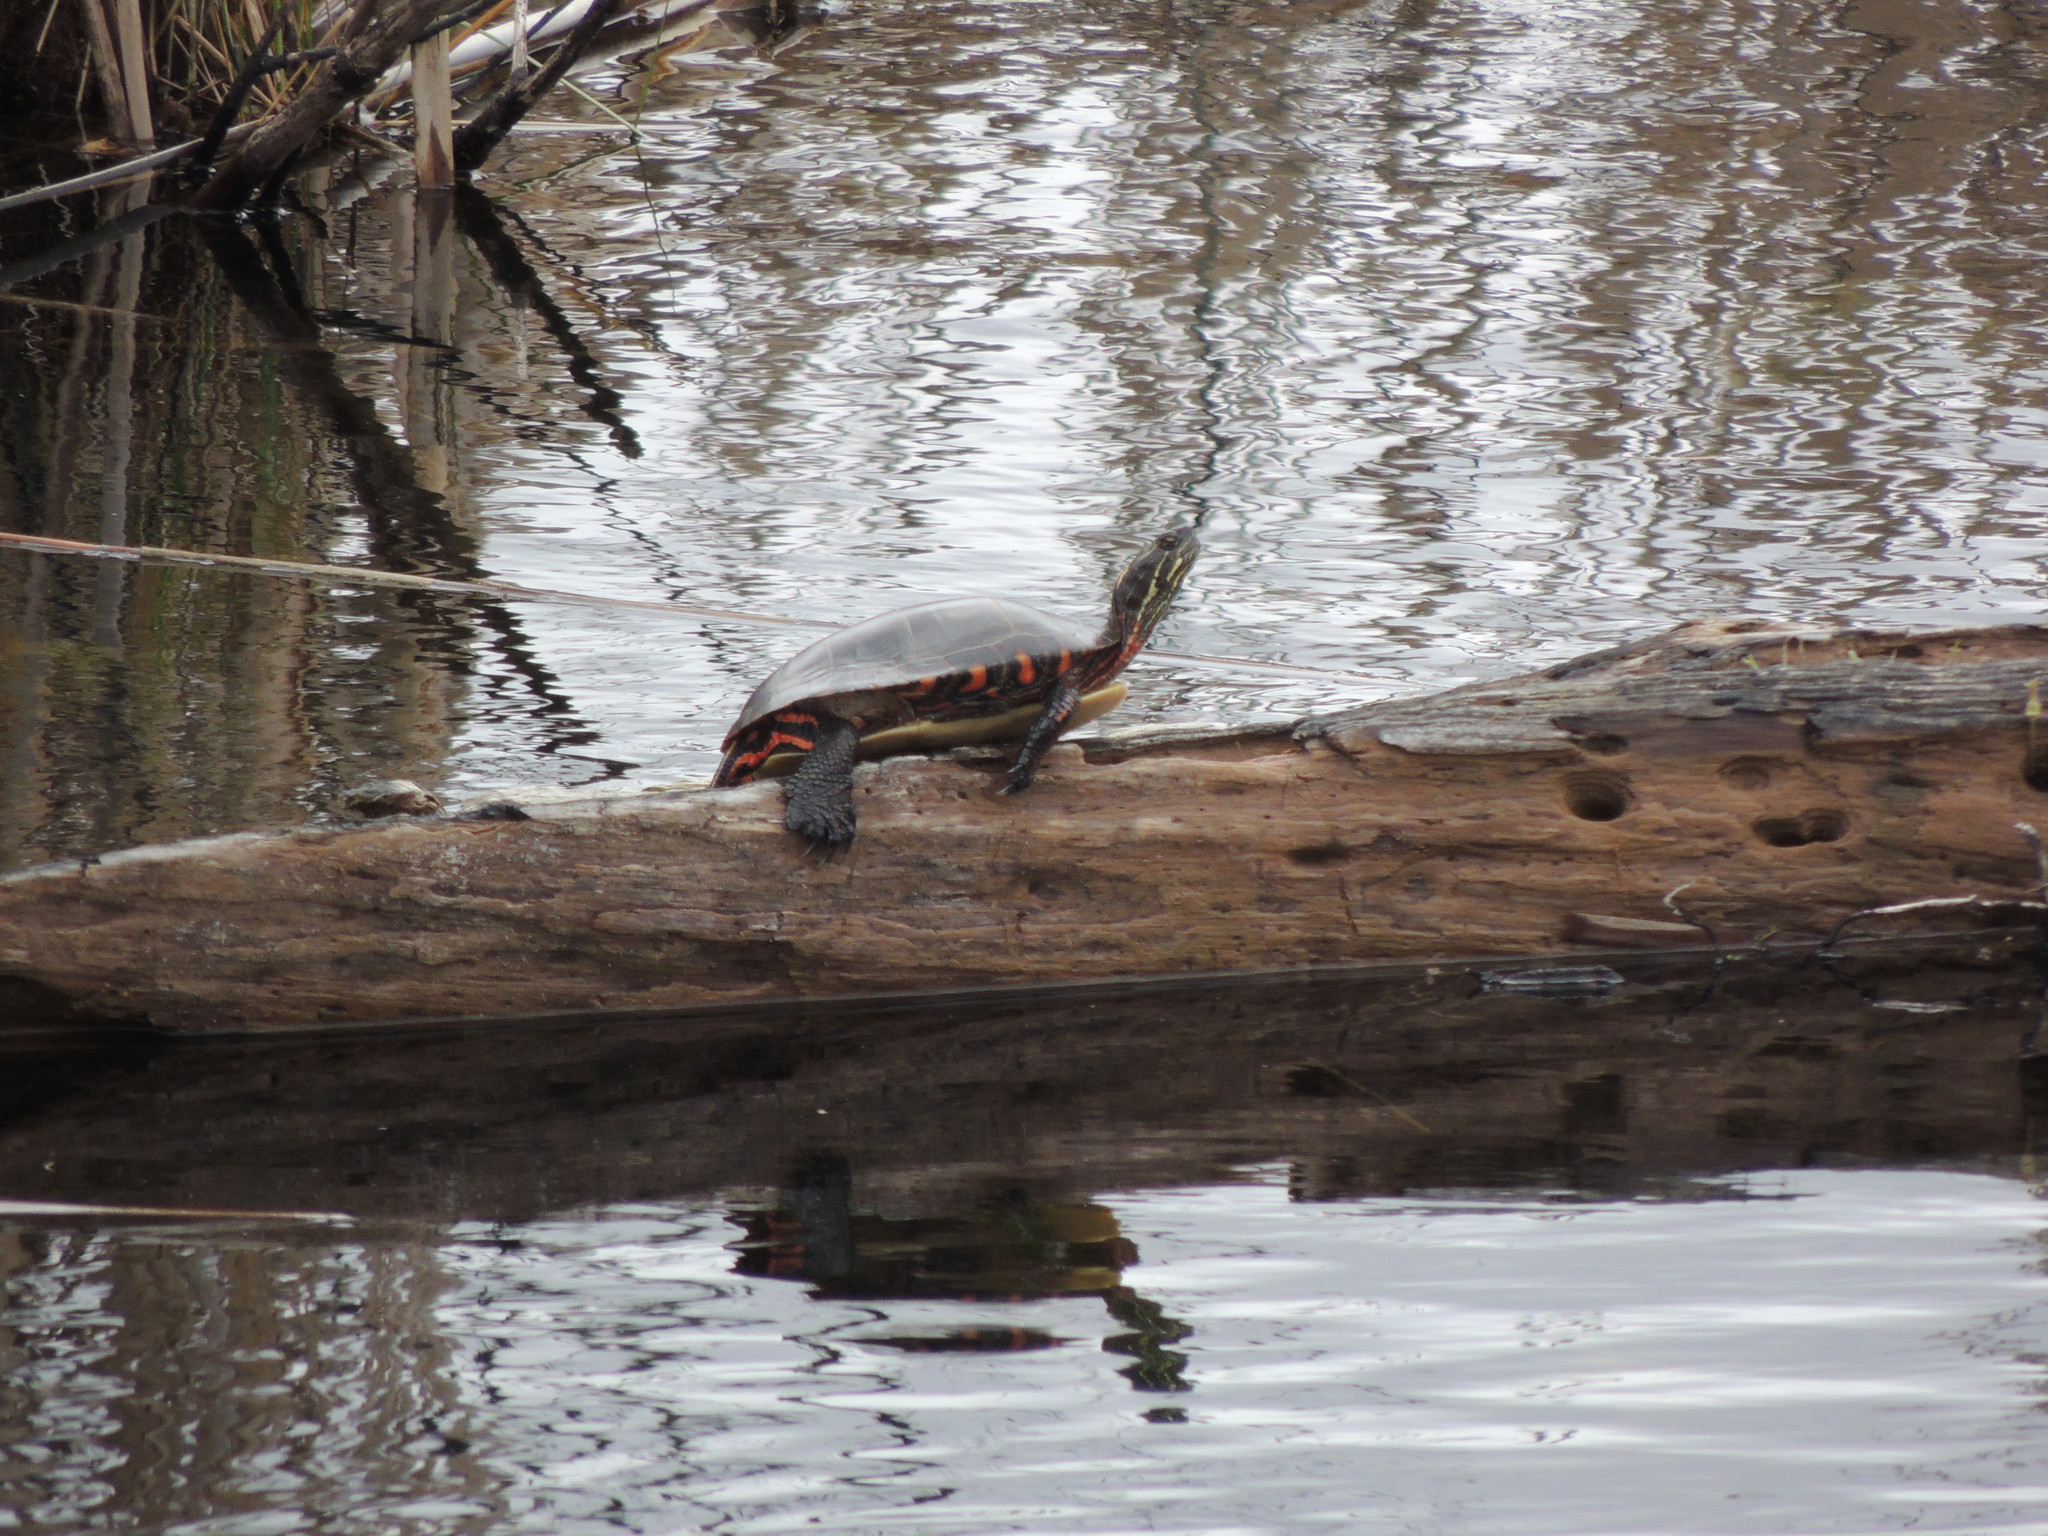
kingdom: Animalia
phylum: Chordata
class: Testudines
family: Emydidae
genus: Chrysemys
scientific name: Chrysemys picta
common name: Painted turtle
